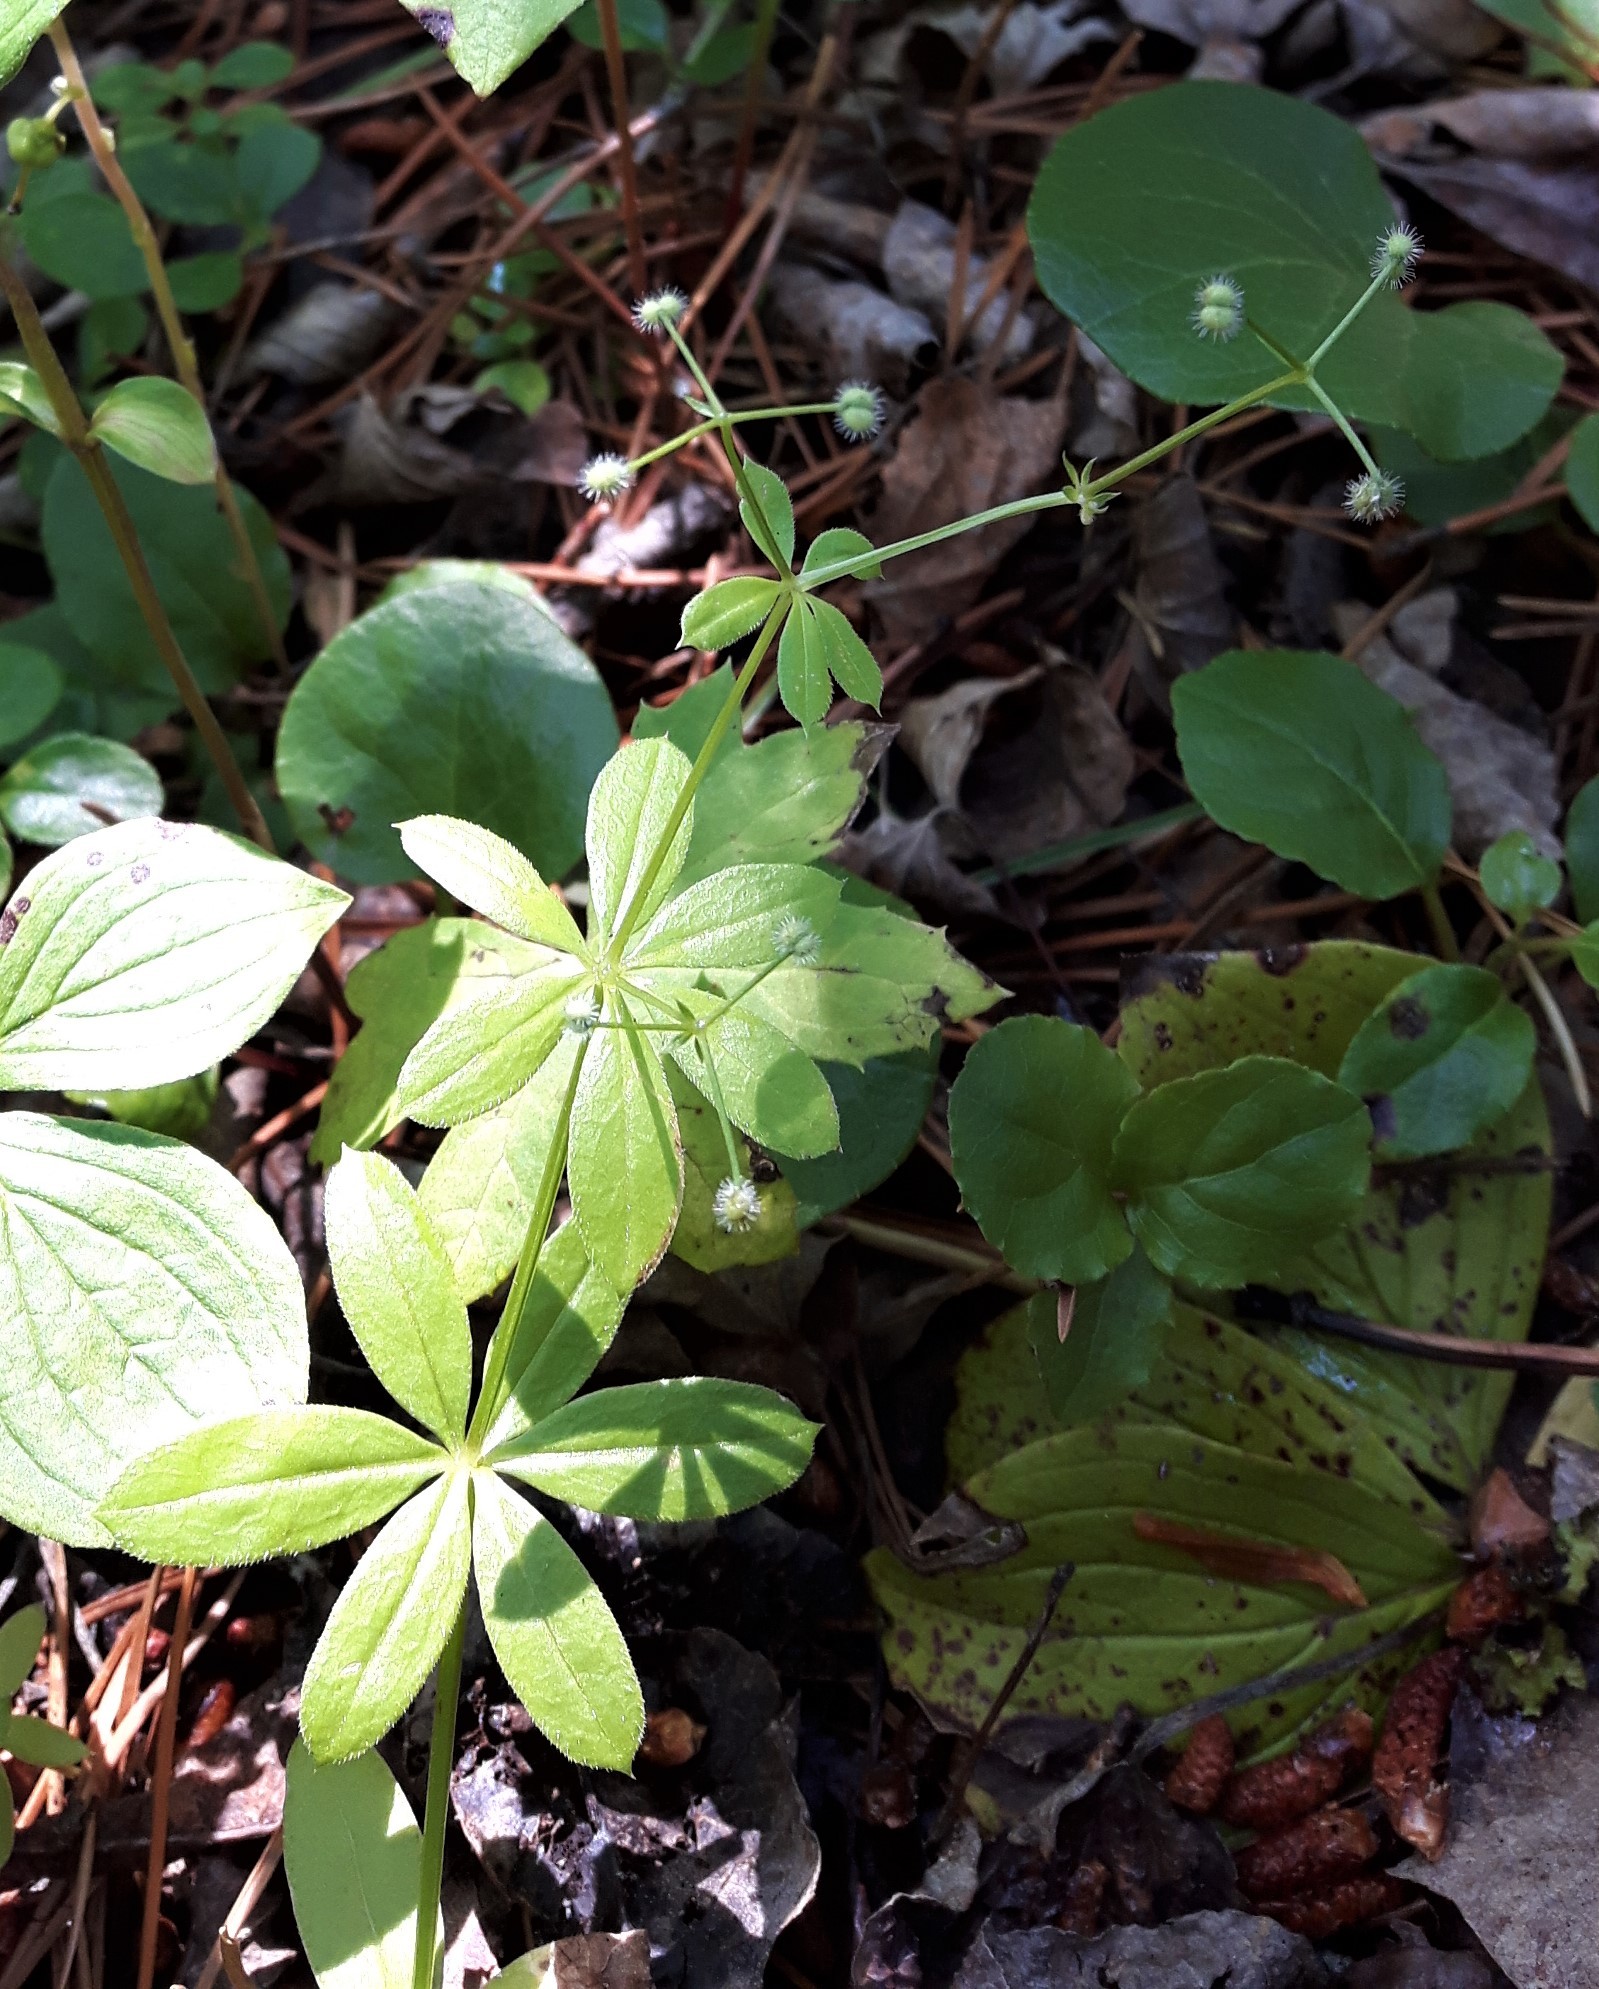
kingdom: Plantae
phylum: Tracheophyta
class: Magnoliopsida
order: Gentianales
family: Rubiaceae
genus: Galium
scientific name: Galium triflorum
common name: Fragrant bedstraw
